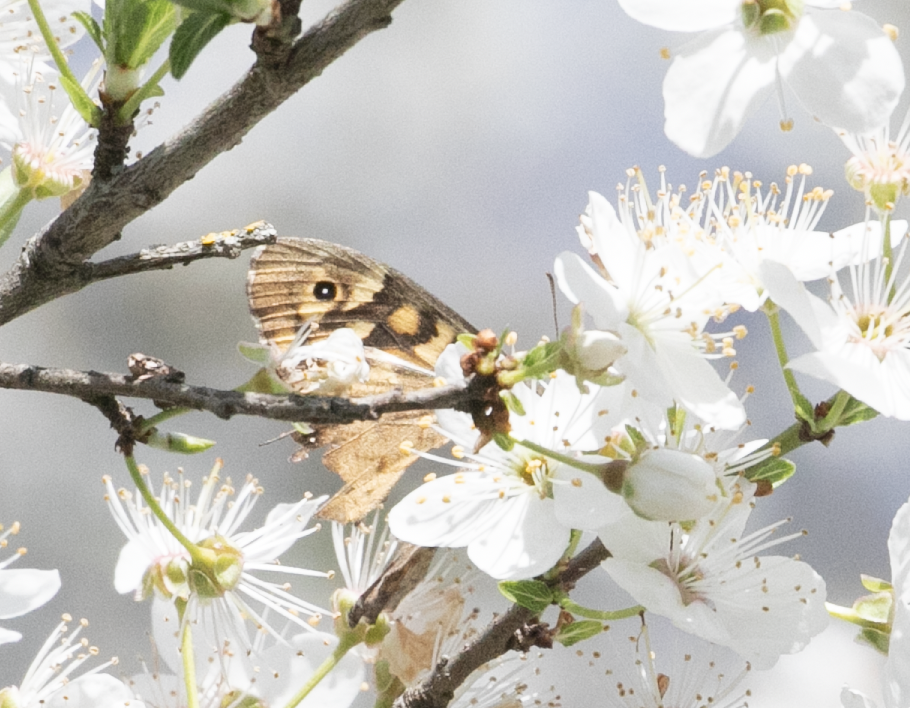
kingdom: Animalia
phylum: Arthropoda
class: Insecta
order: Lepidoptera
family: Nymphalidae
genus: Pararge
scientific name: Pararge aegeria
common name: Speckled wood
